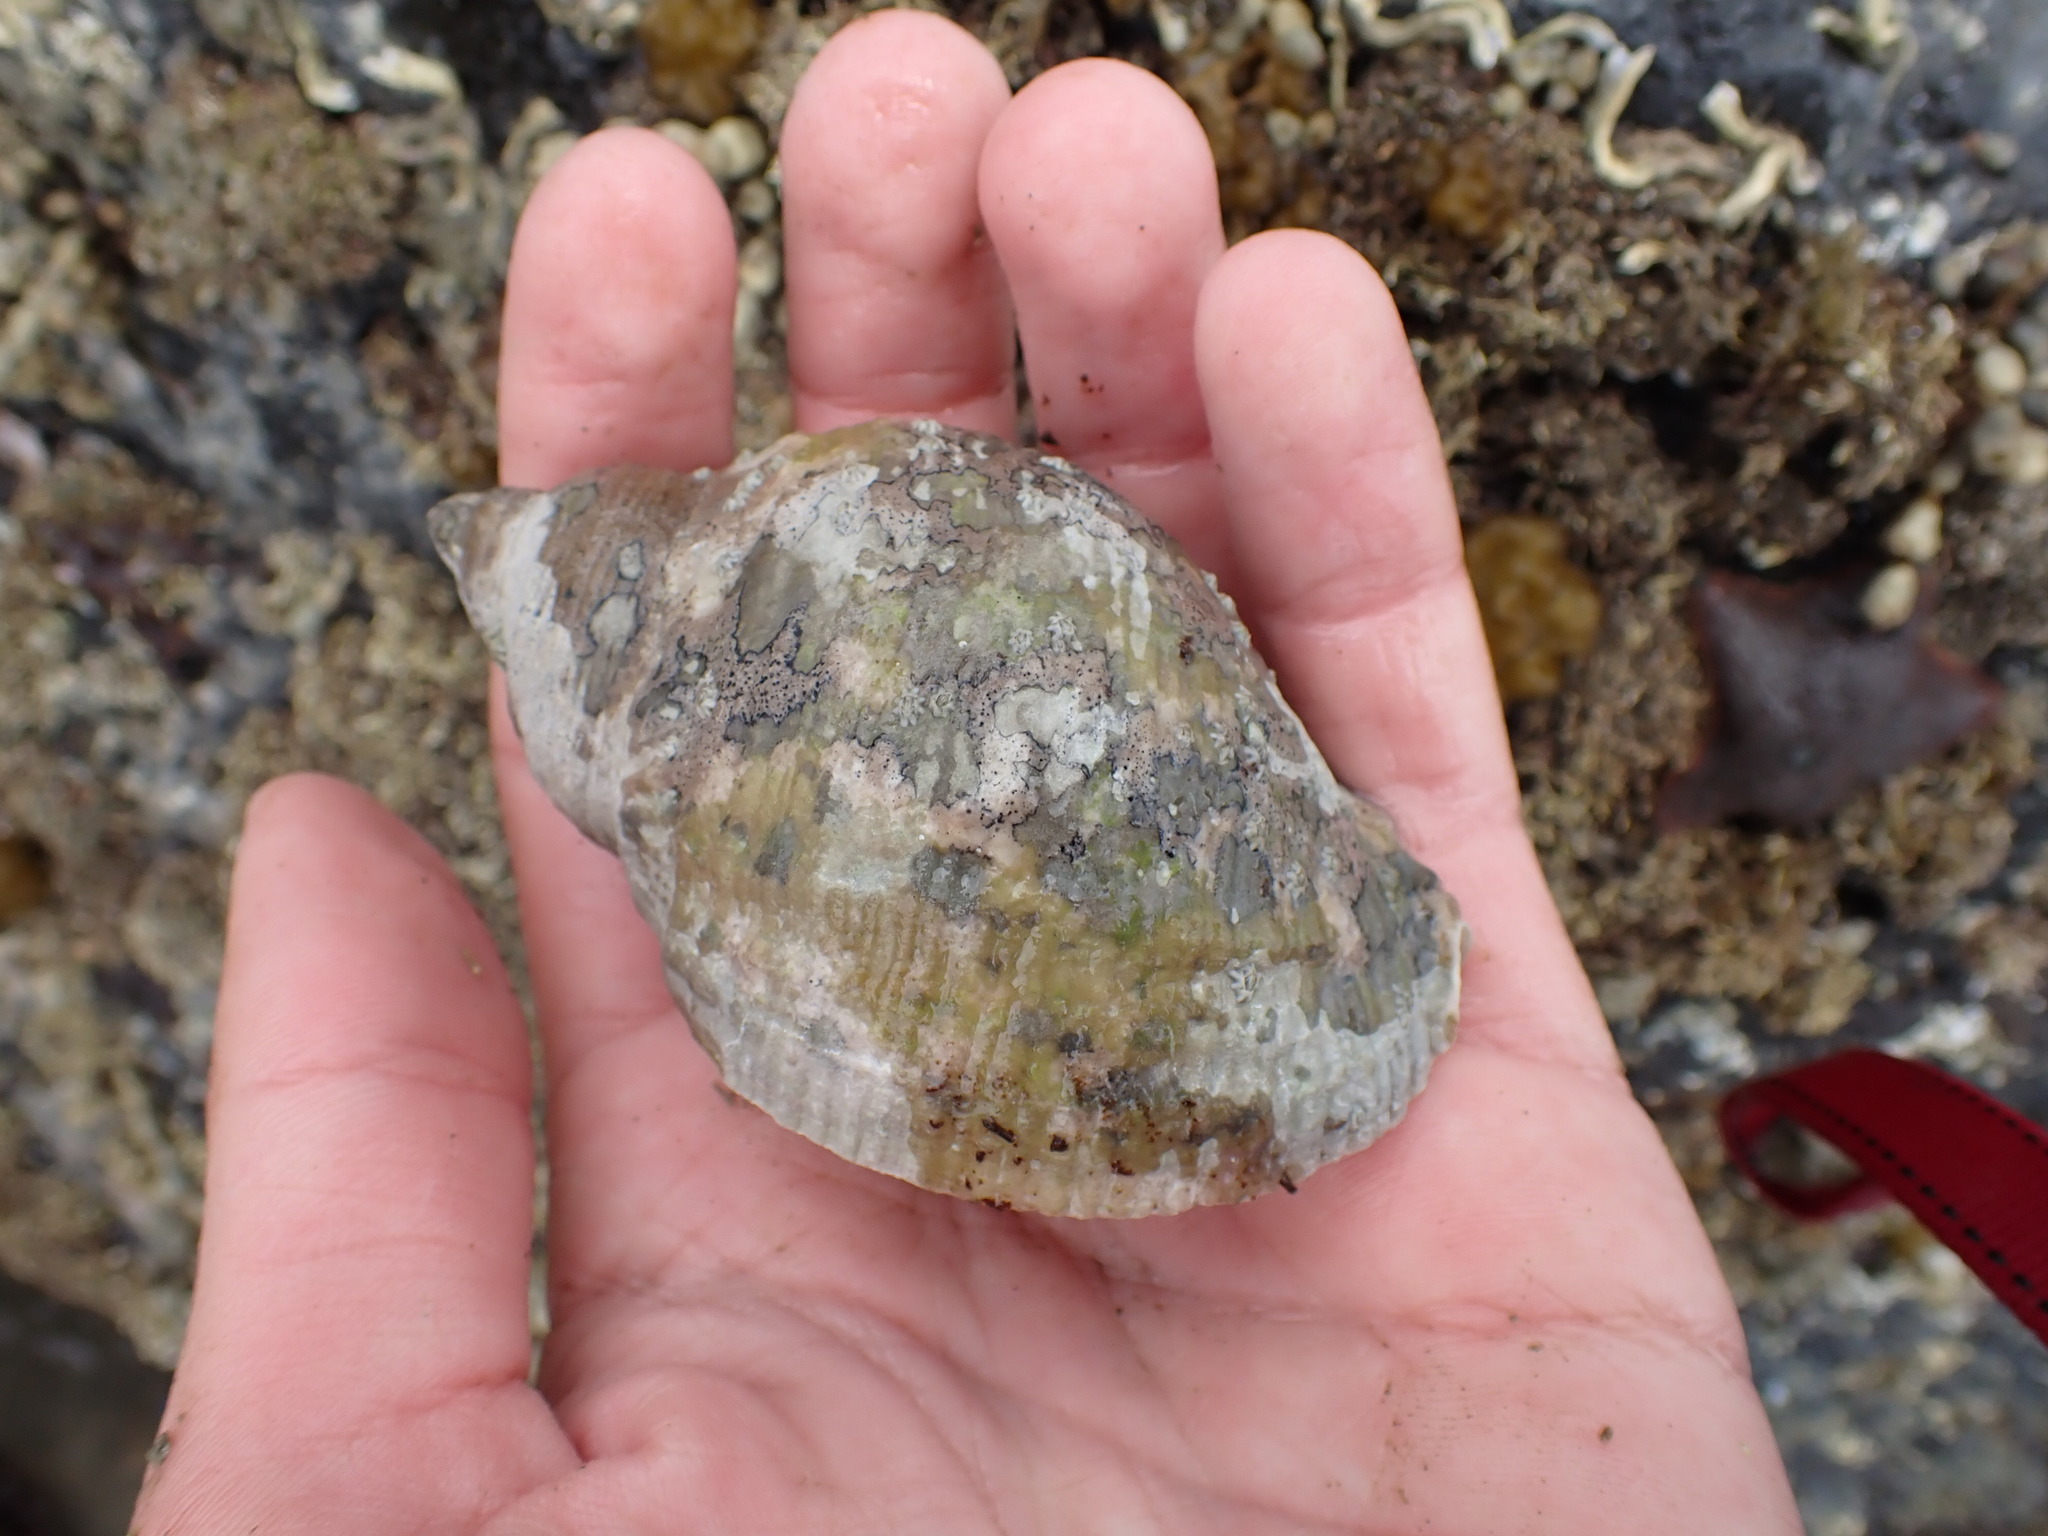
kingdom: Animalia
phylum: Mollusca
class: Gastropoda
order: Neogastropoda
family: Muricidae
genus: Dicathais
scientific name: Dicathais orbita
